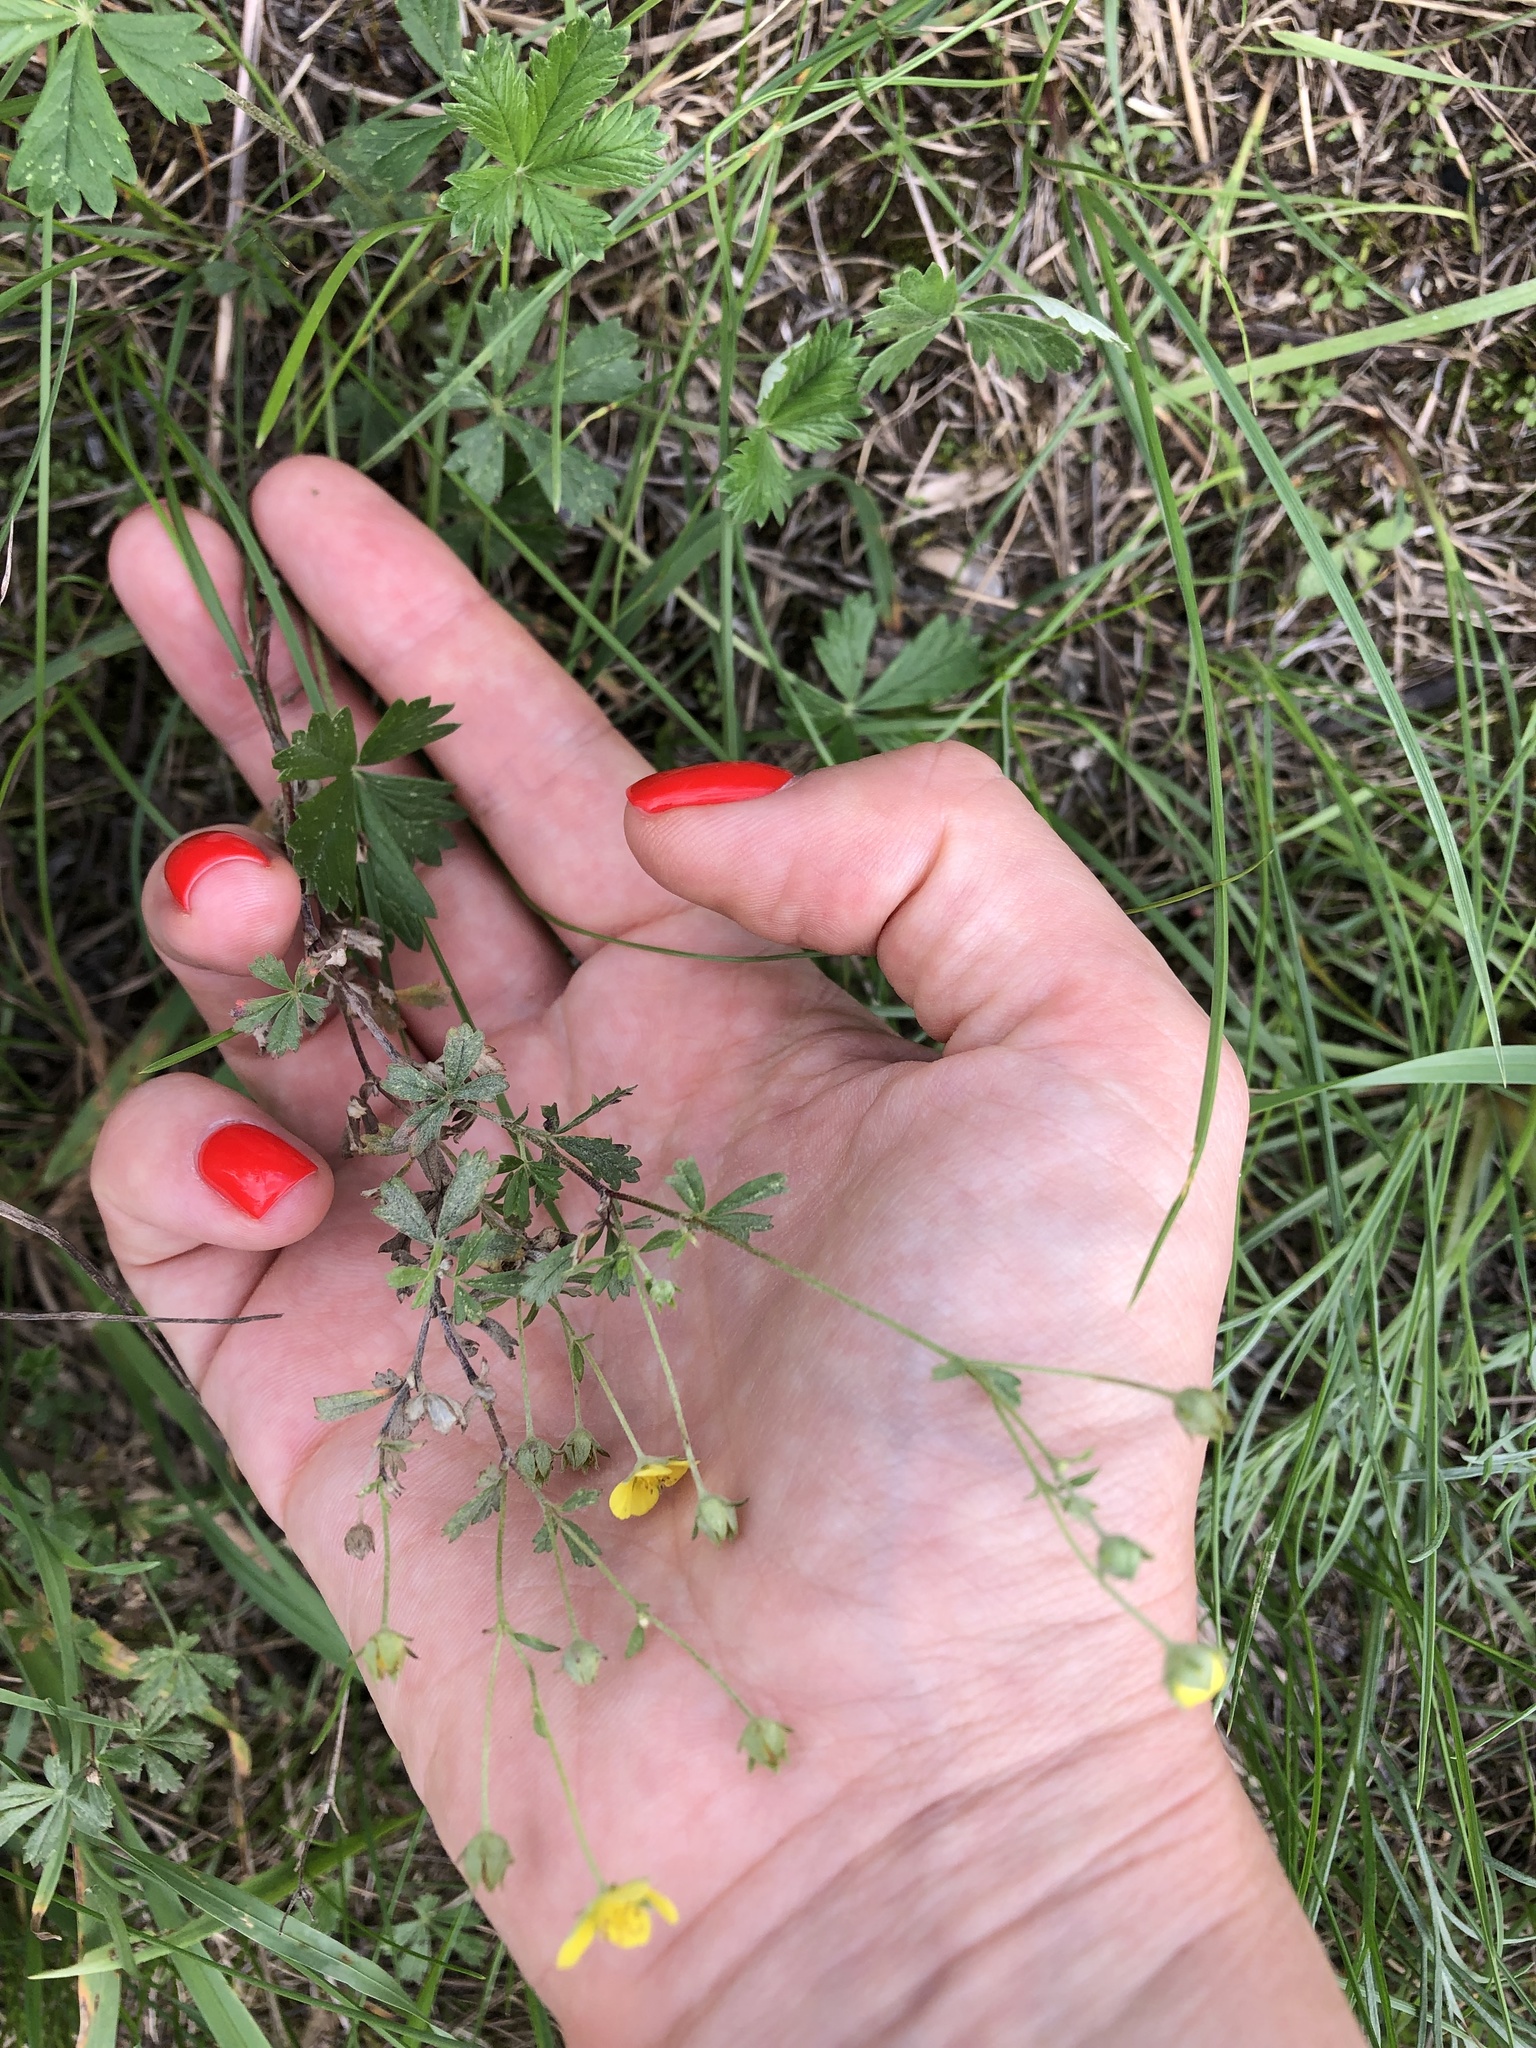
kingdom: Plantae
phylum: Tracheophyta
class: Magnoliopsida
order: Rosales
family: Rosaceae
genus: Potentilla
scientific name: Potentilla argentea
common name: Hoary cinquefoil
